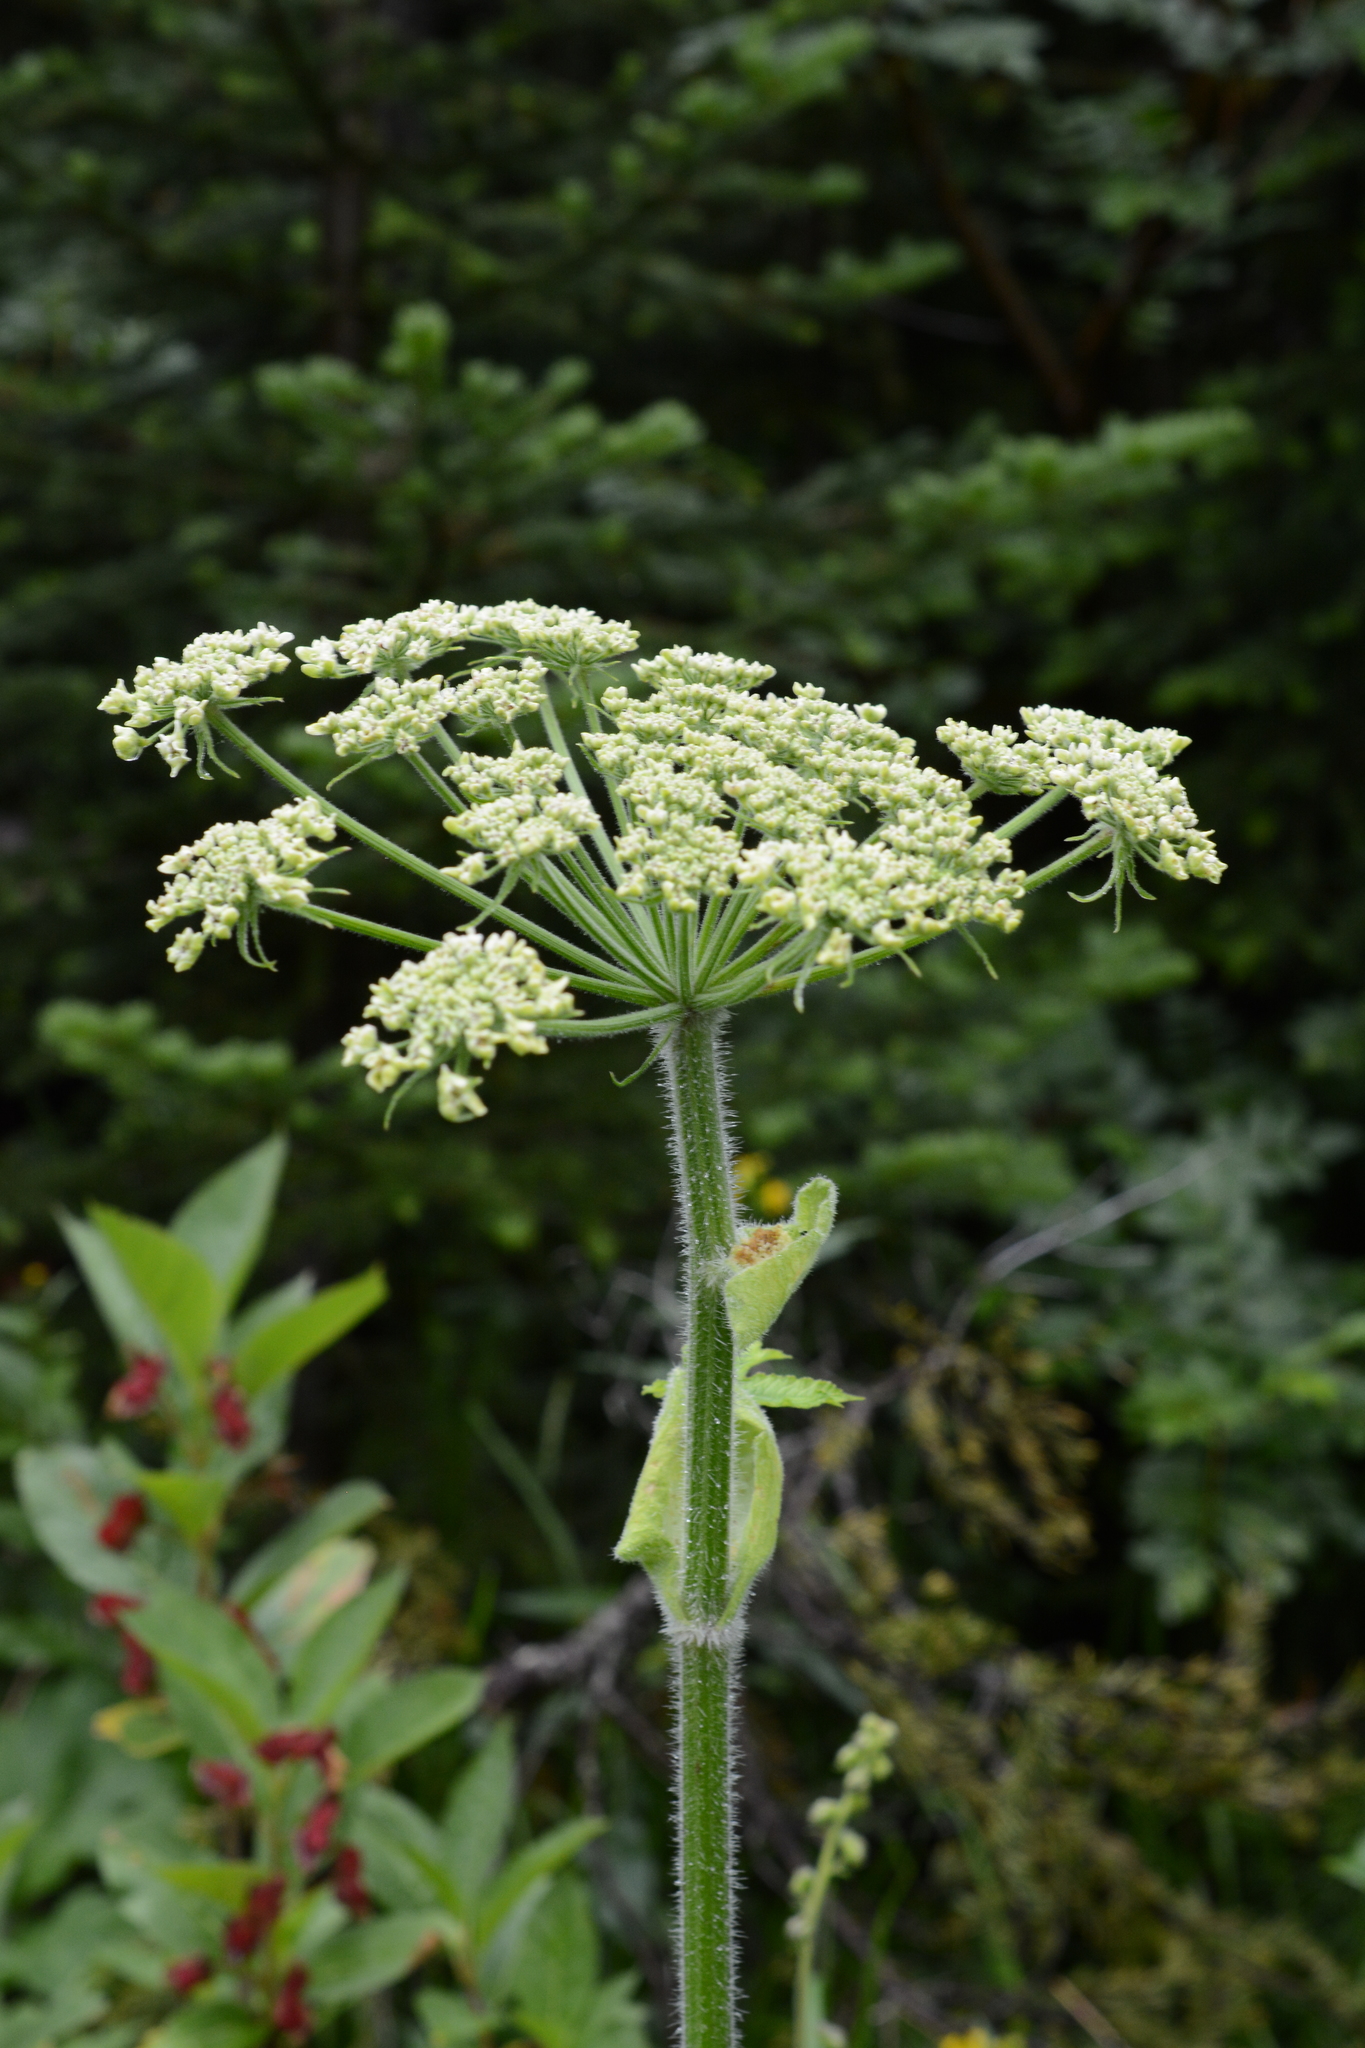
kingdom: Plantae
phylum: Tracheophyta
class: Magnoliopsida
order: Apiales
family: Apiaceae
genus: Heracleum
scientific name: Heracleum maximum
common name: American cow parsnip
